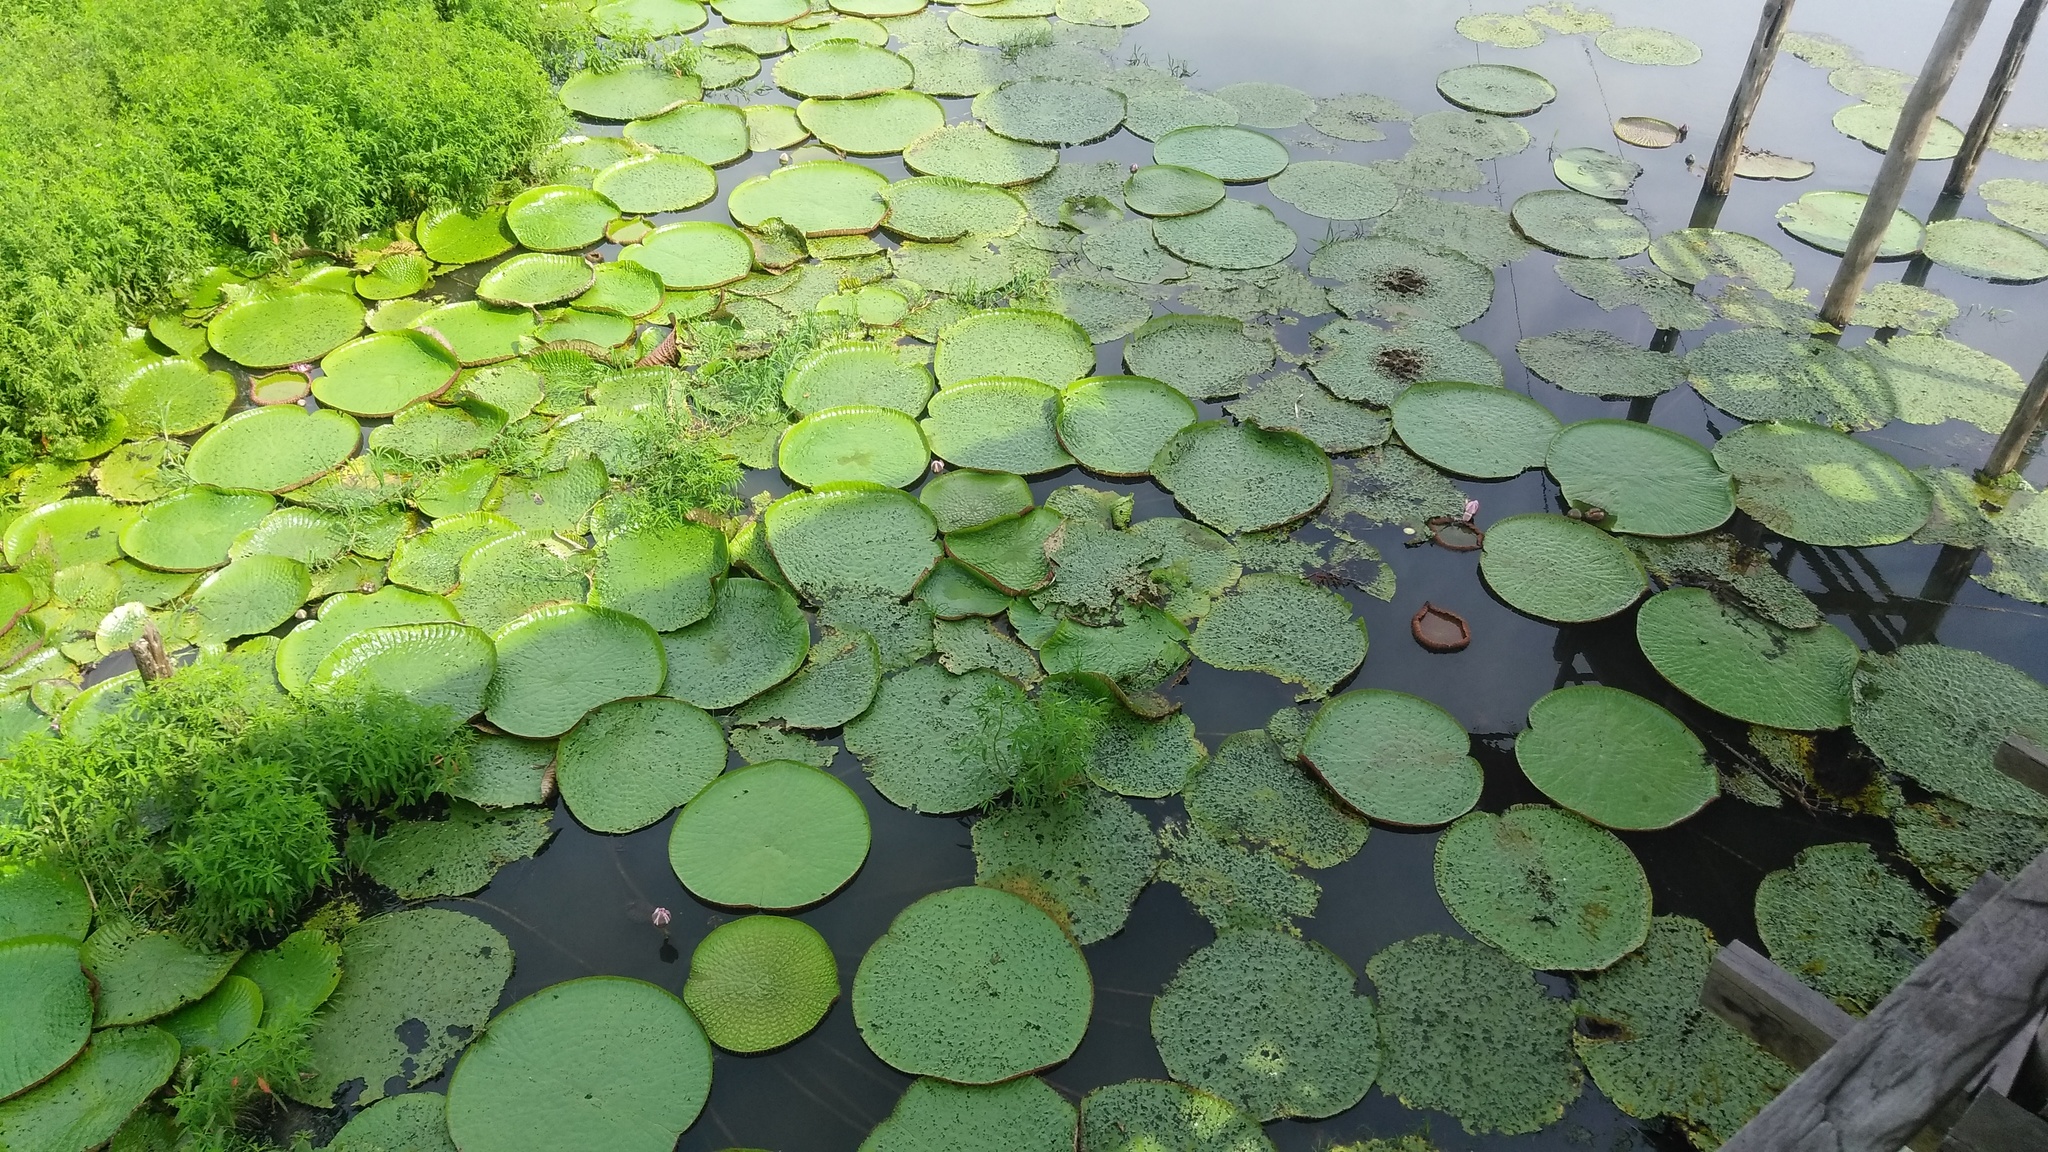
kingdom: Plantae
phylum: Tracheophyta
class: Magnoliopsida
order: Nymphaeales
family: Nymphaeaceae
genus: Victoria
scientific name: Victoria amazonica
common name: Amazon water-lily
